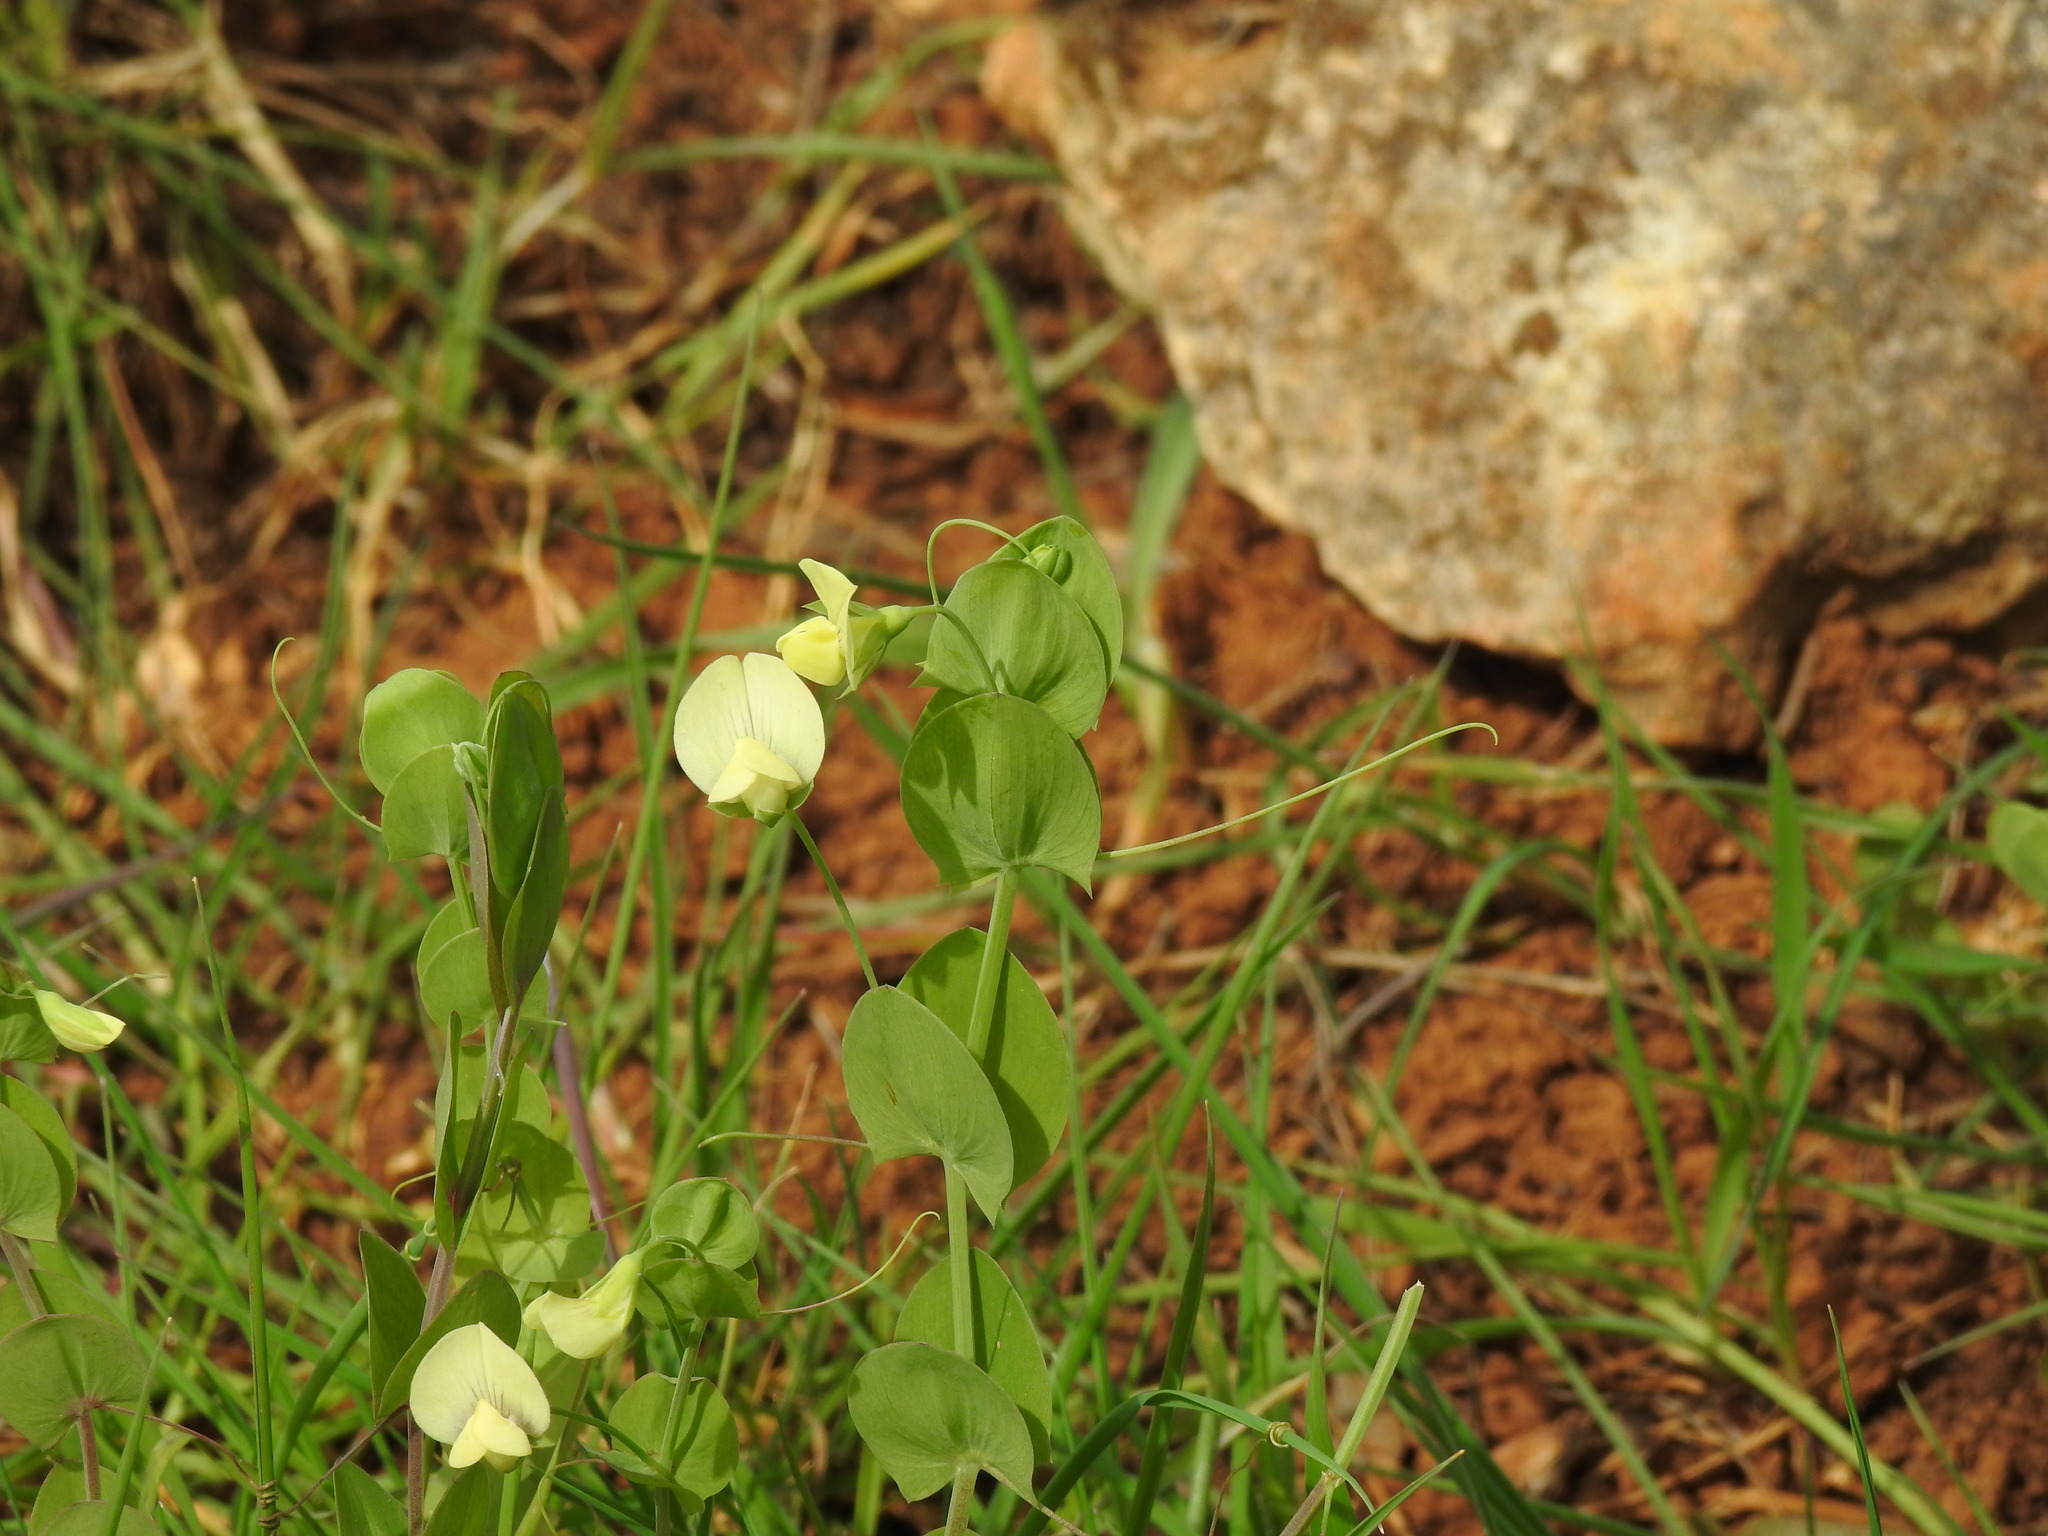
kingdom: Plantae
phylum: Tracheophyta
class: Magnoliopsida
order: Fabales
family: Fabaceae
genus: Lathyrus
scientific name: Lathyrus aphaca
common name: Yellow vetchling
